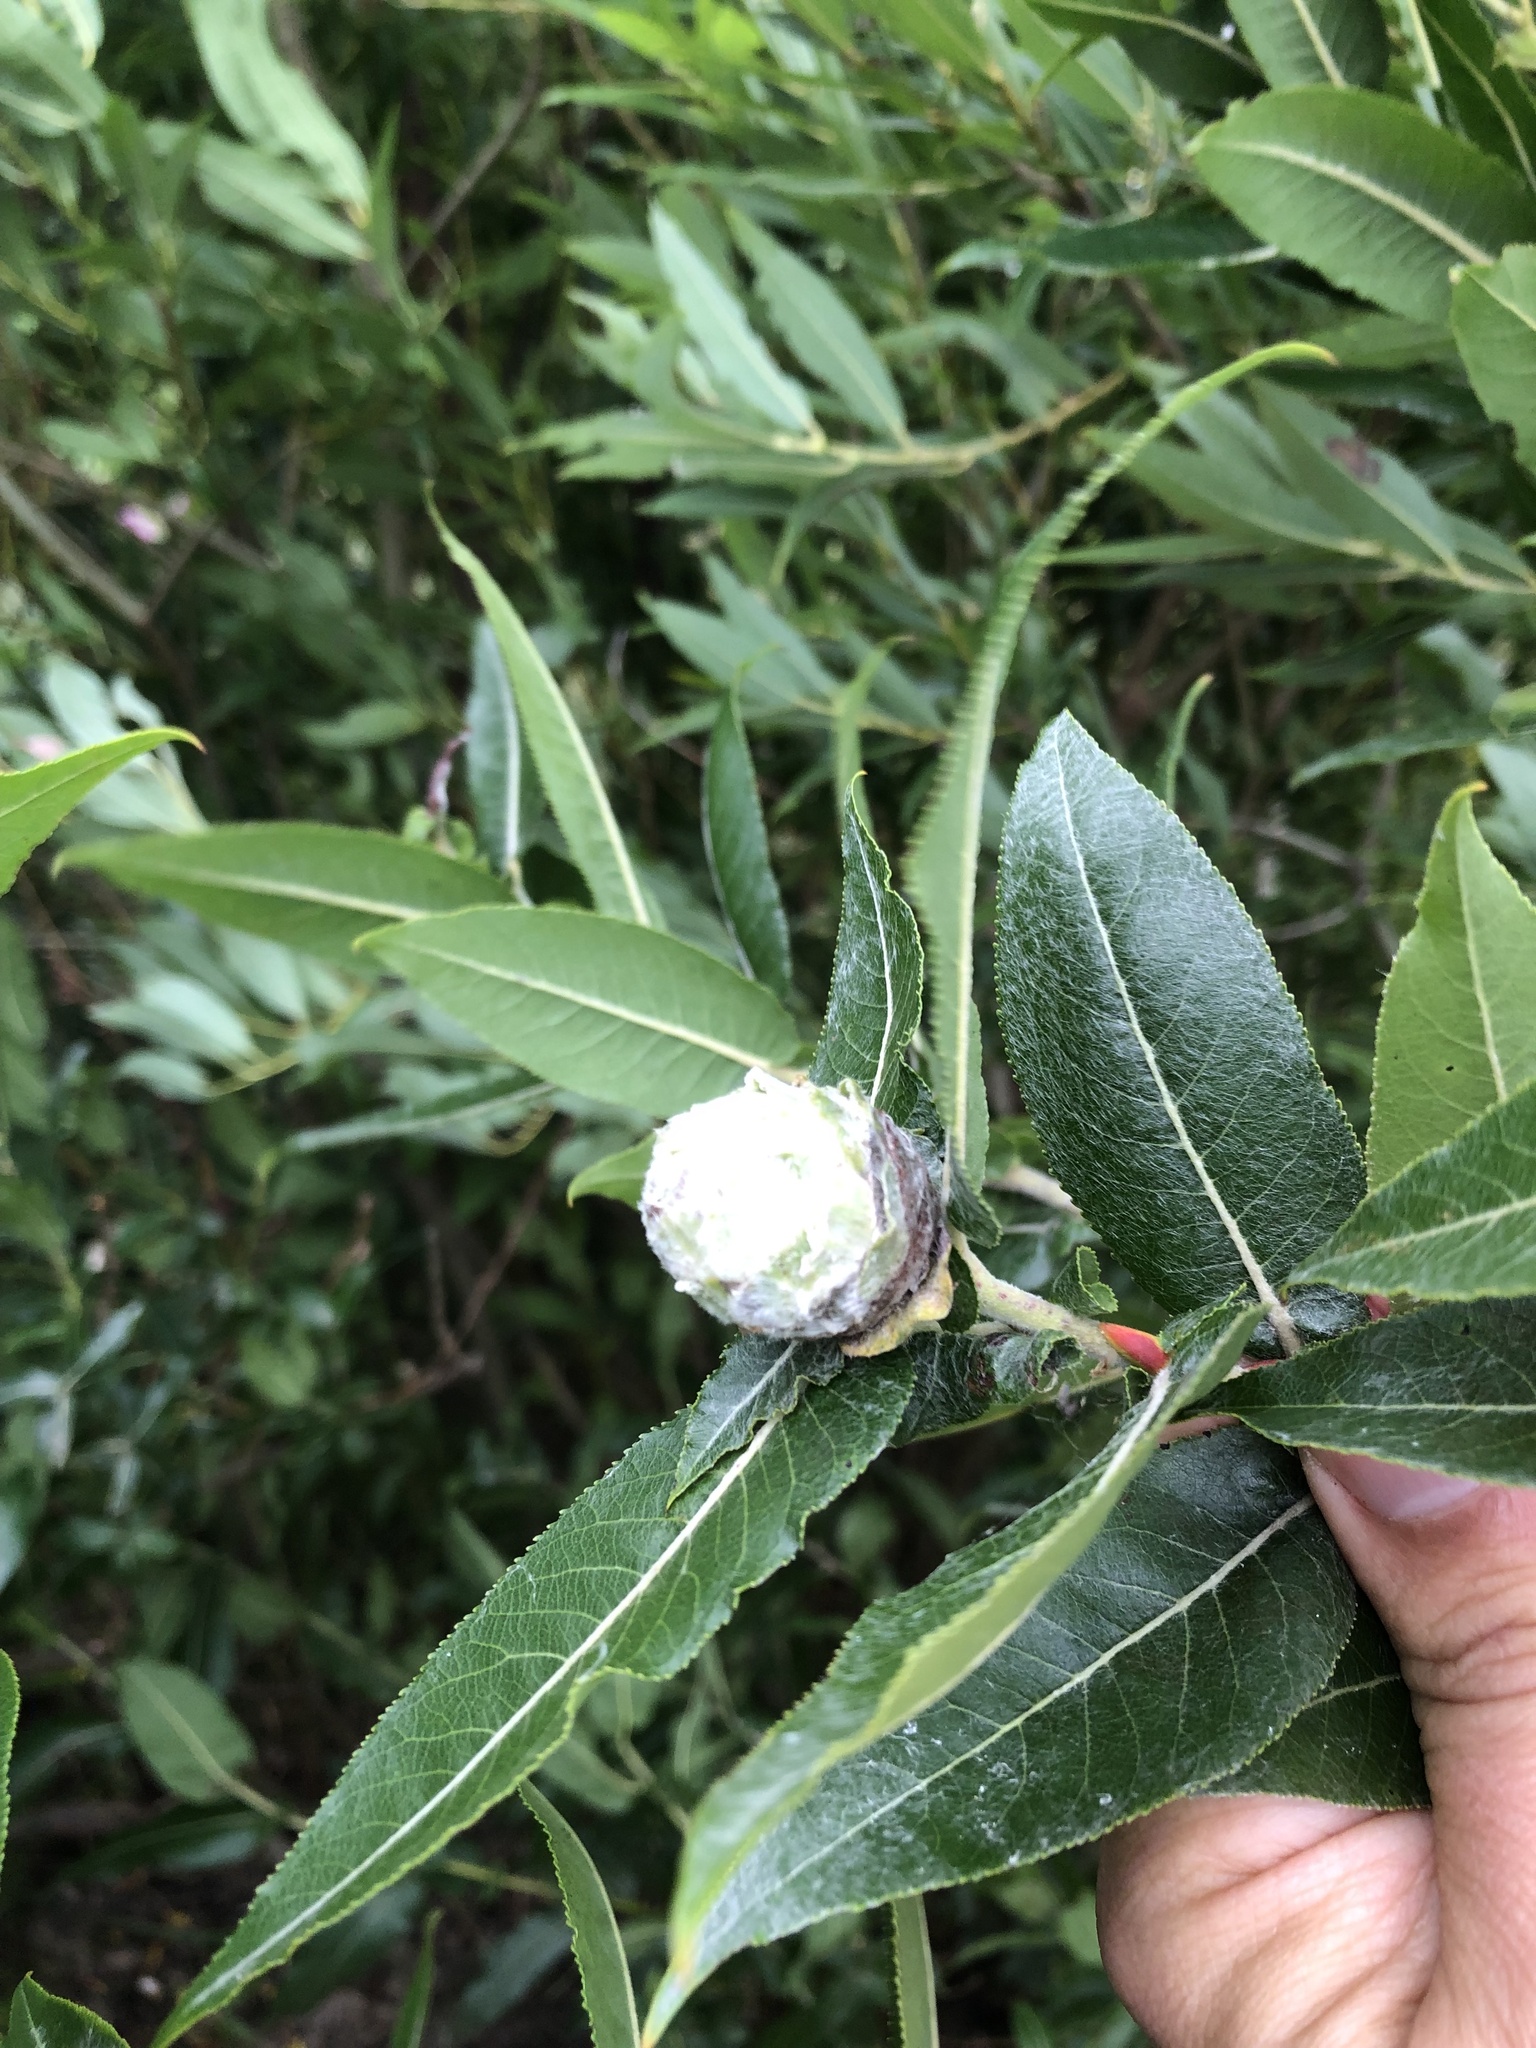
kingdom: Animalia
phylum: Arthropoda
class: Insecta
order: Diptera
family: Cecidomyiidae
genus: Rabdophaga
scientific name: Rabdophaga strobiloides
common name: Willow pinecone gall midge
